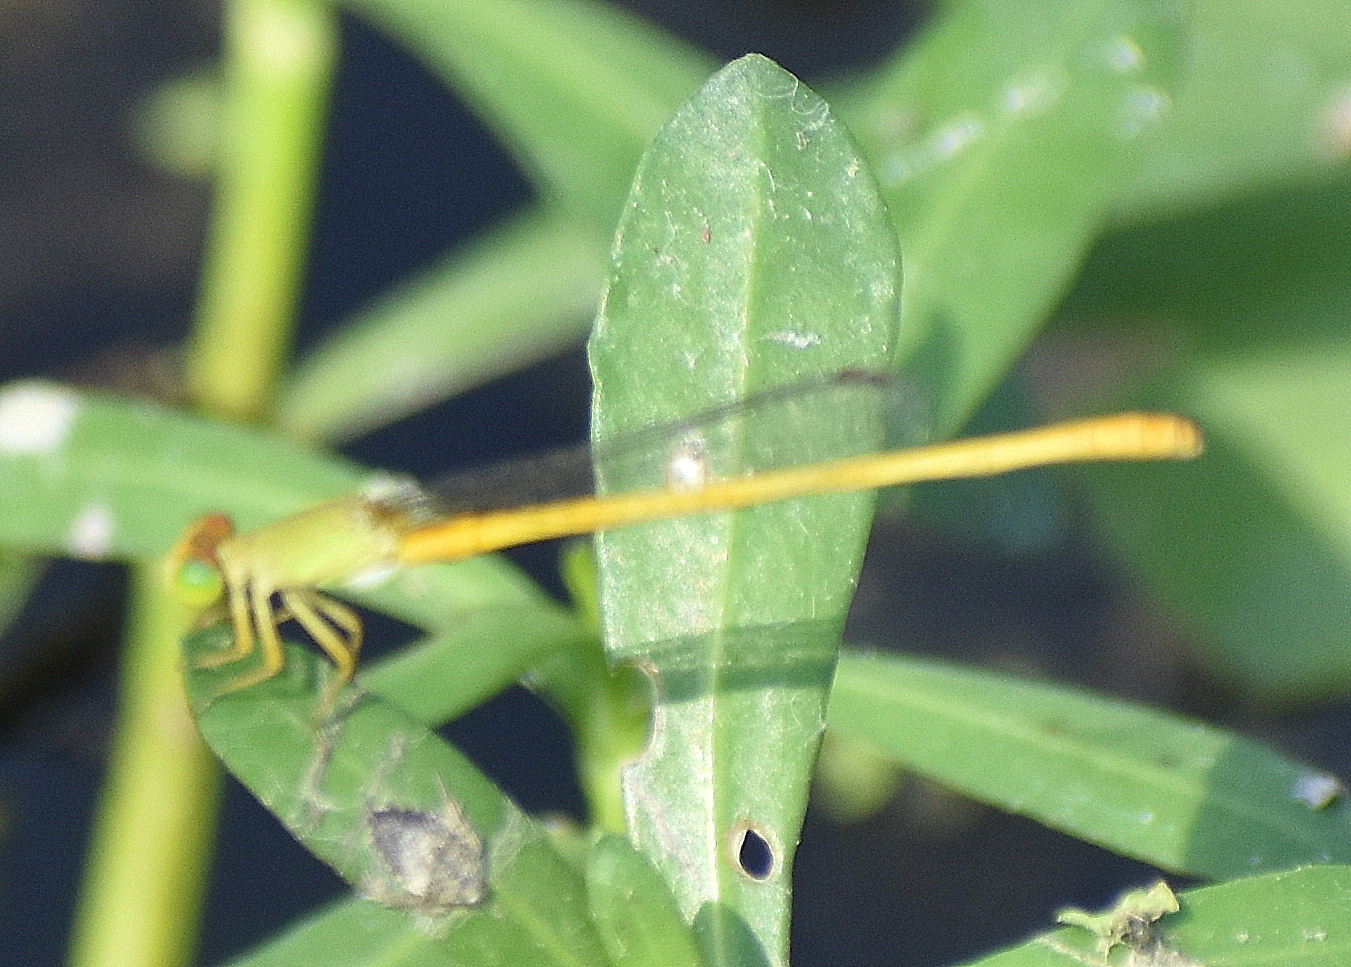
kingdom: Animalia
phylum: Arthropoda
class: Insecta
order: Odonata
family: Coenagrionidae
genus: Ceriagrion
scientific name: Ceriagrion coromandelianum
